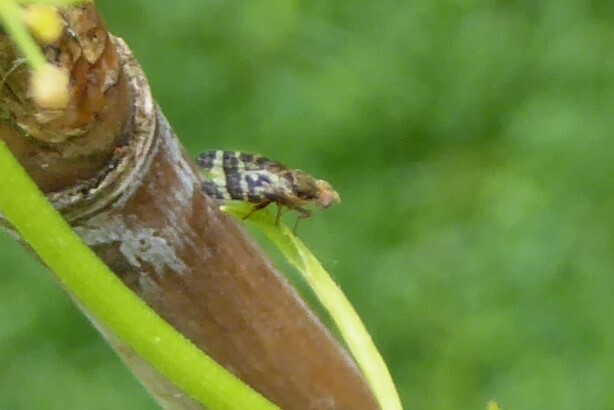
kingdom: Animalia
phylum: Arthropoda
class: Insecta
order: Diptera
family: Tephritidae
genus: Sphenella
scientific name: Sphenella
